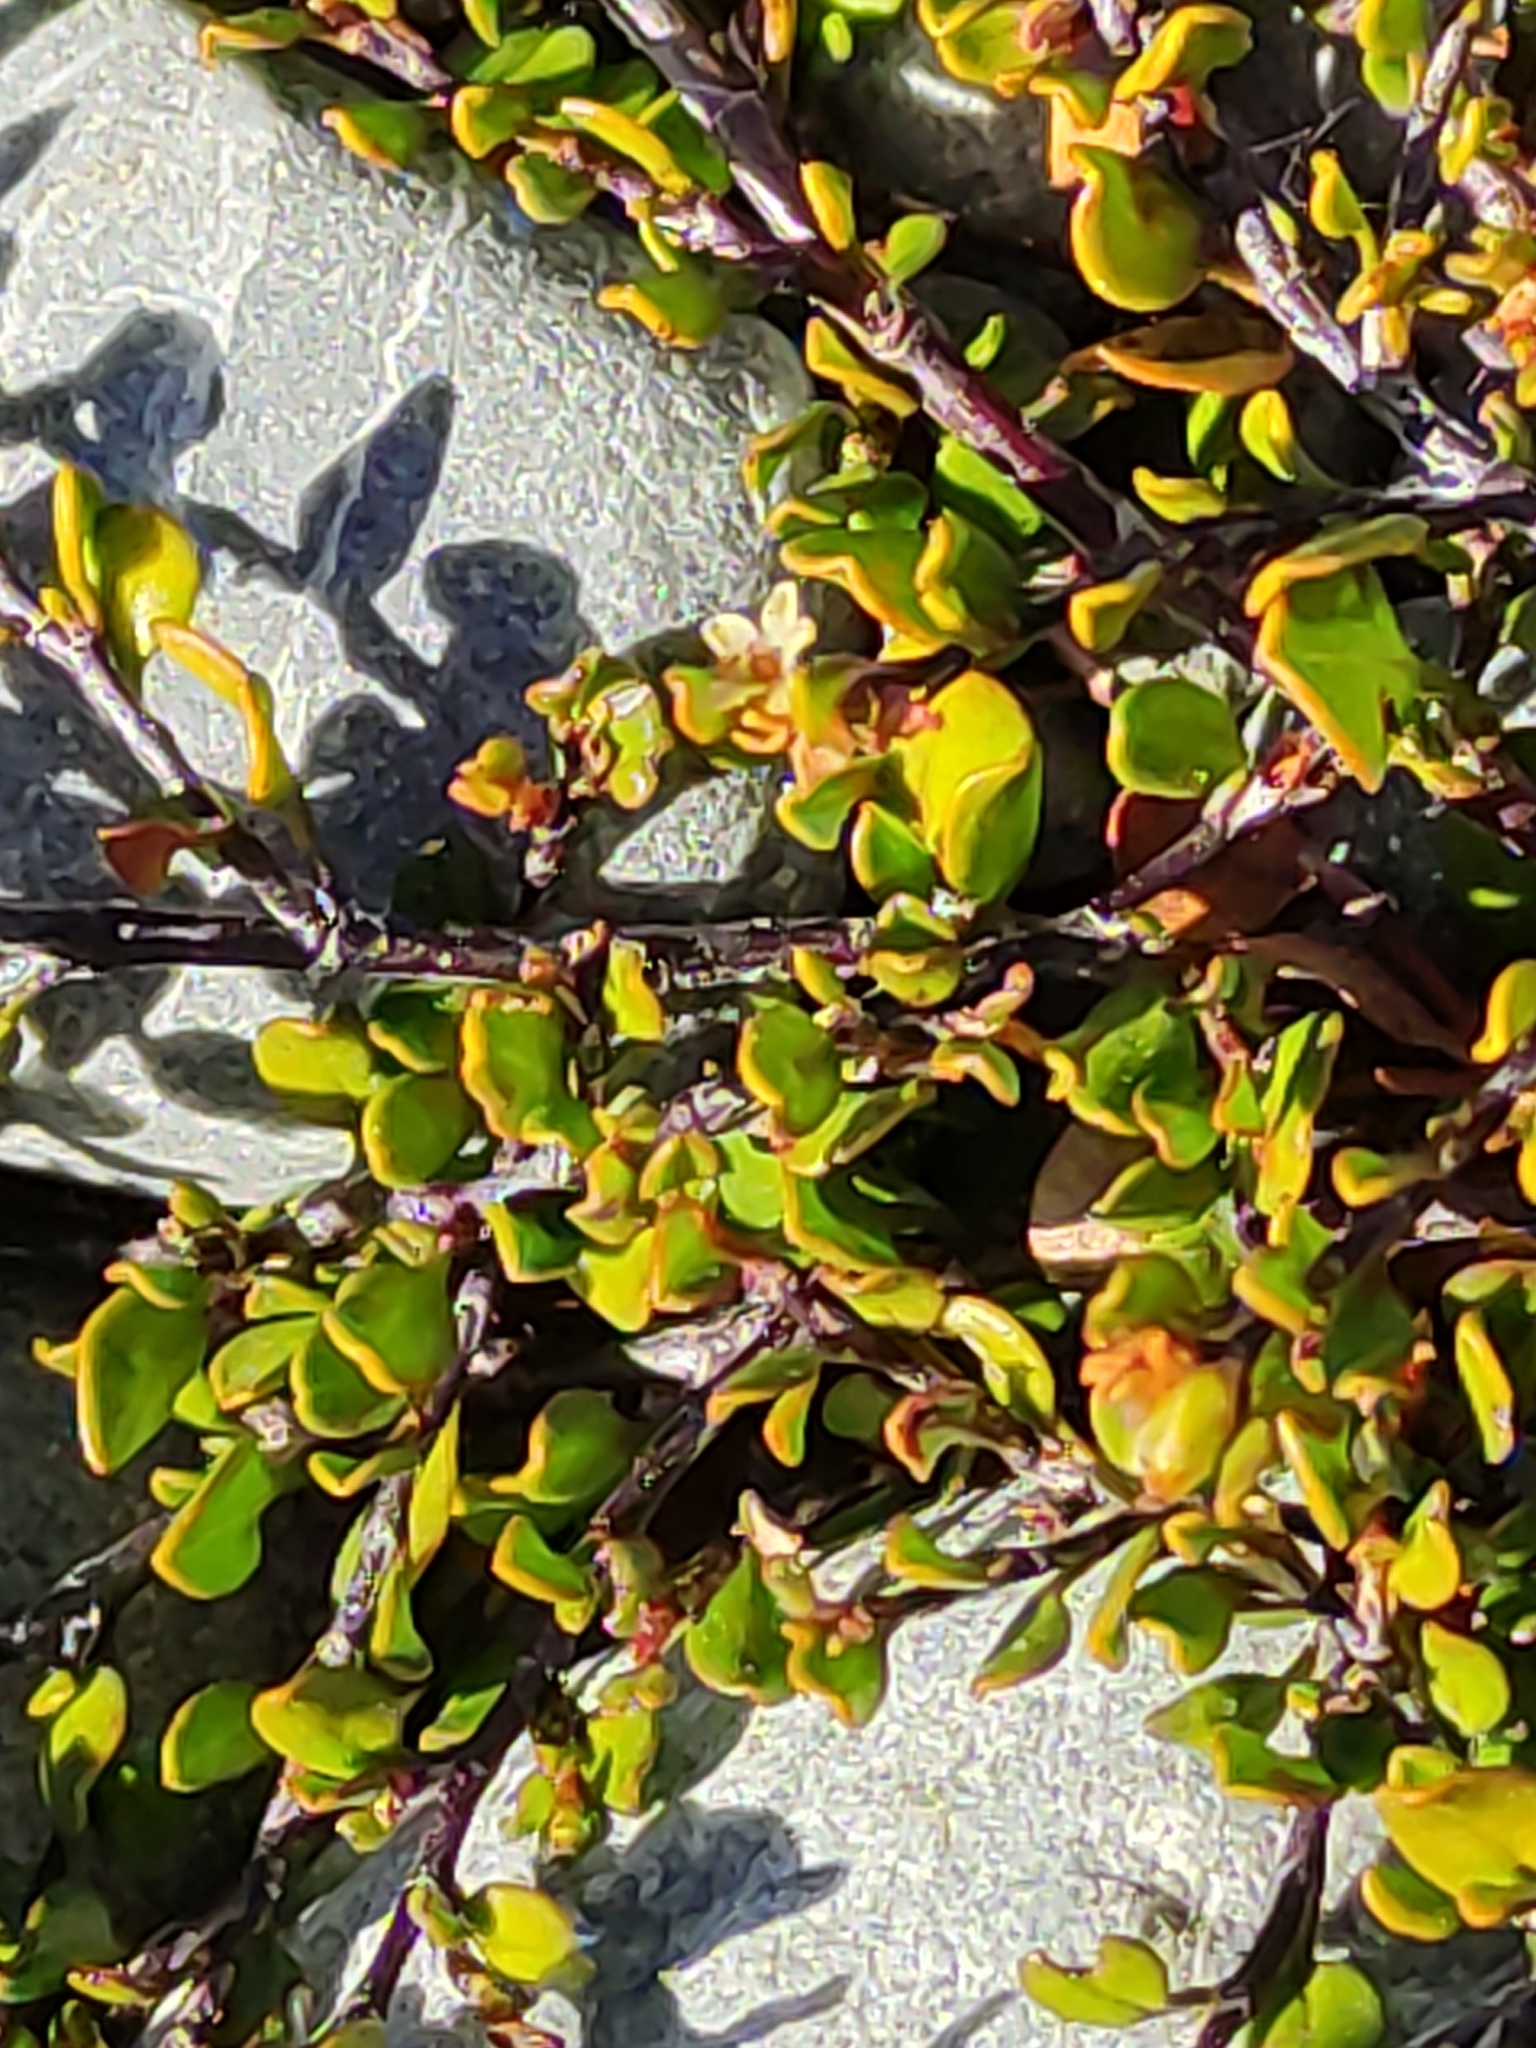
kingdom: Plantae
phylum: Tracheophyta
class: Magnoliopsida
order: Caryophyllales
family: Polygonaceae
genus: Muehlenbeckia
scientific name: Muehlenbeckia axillaris
